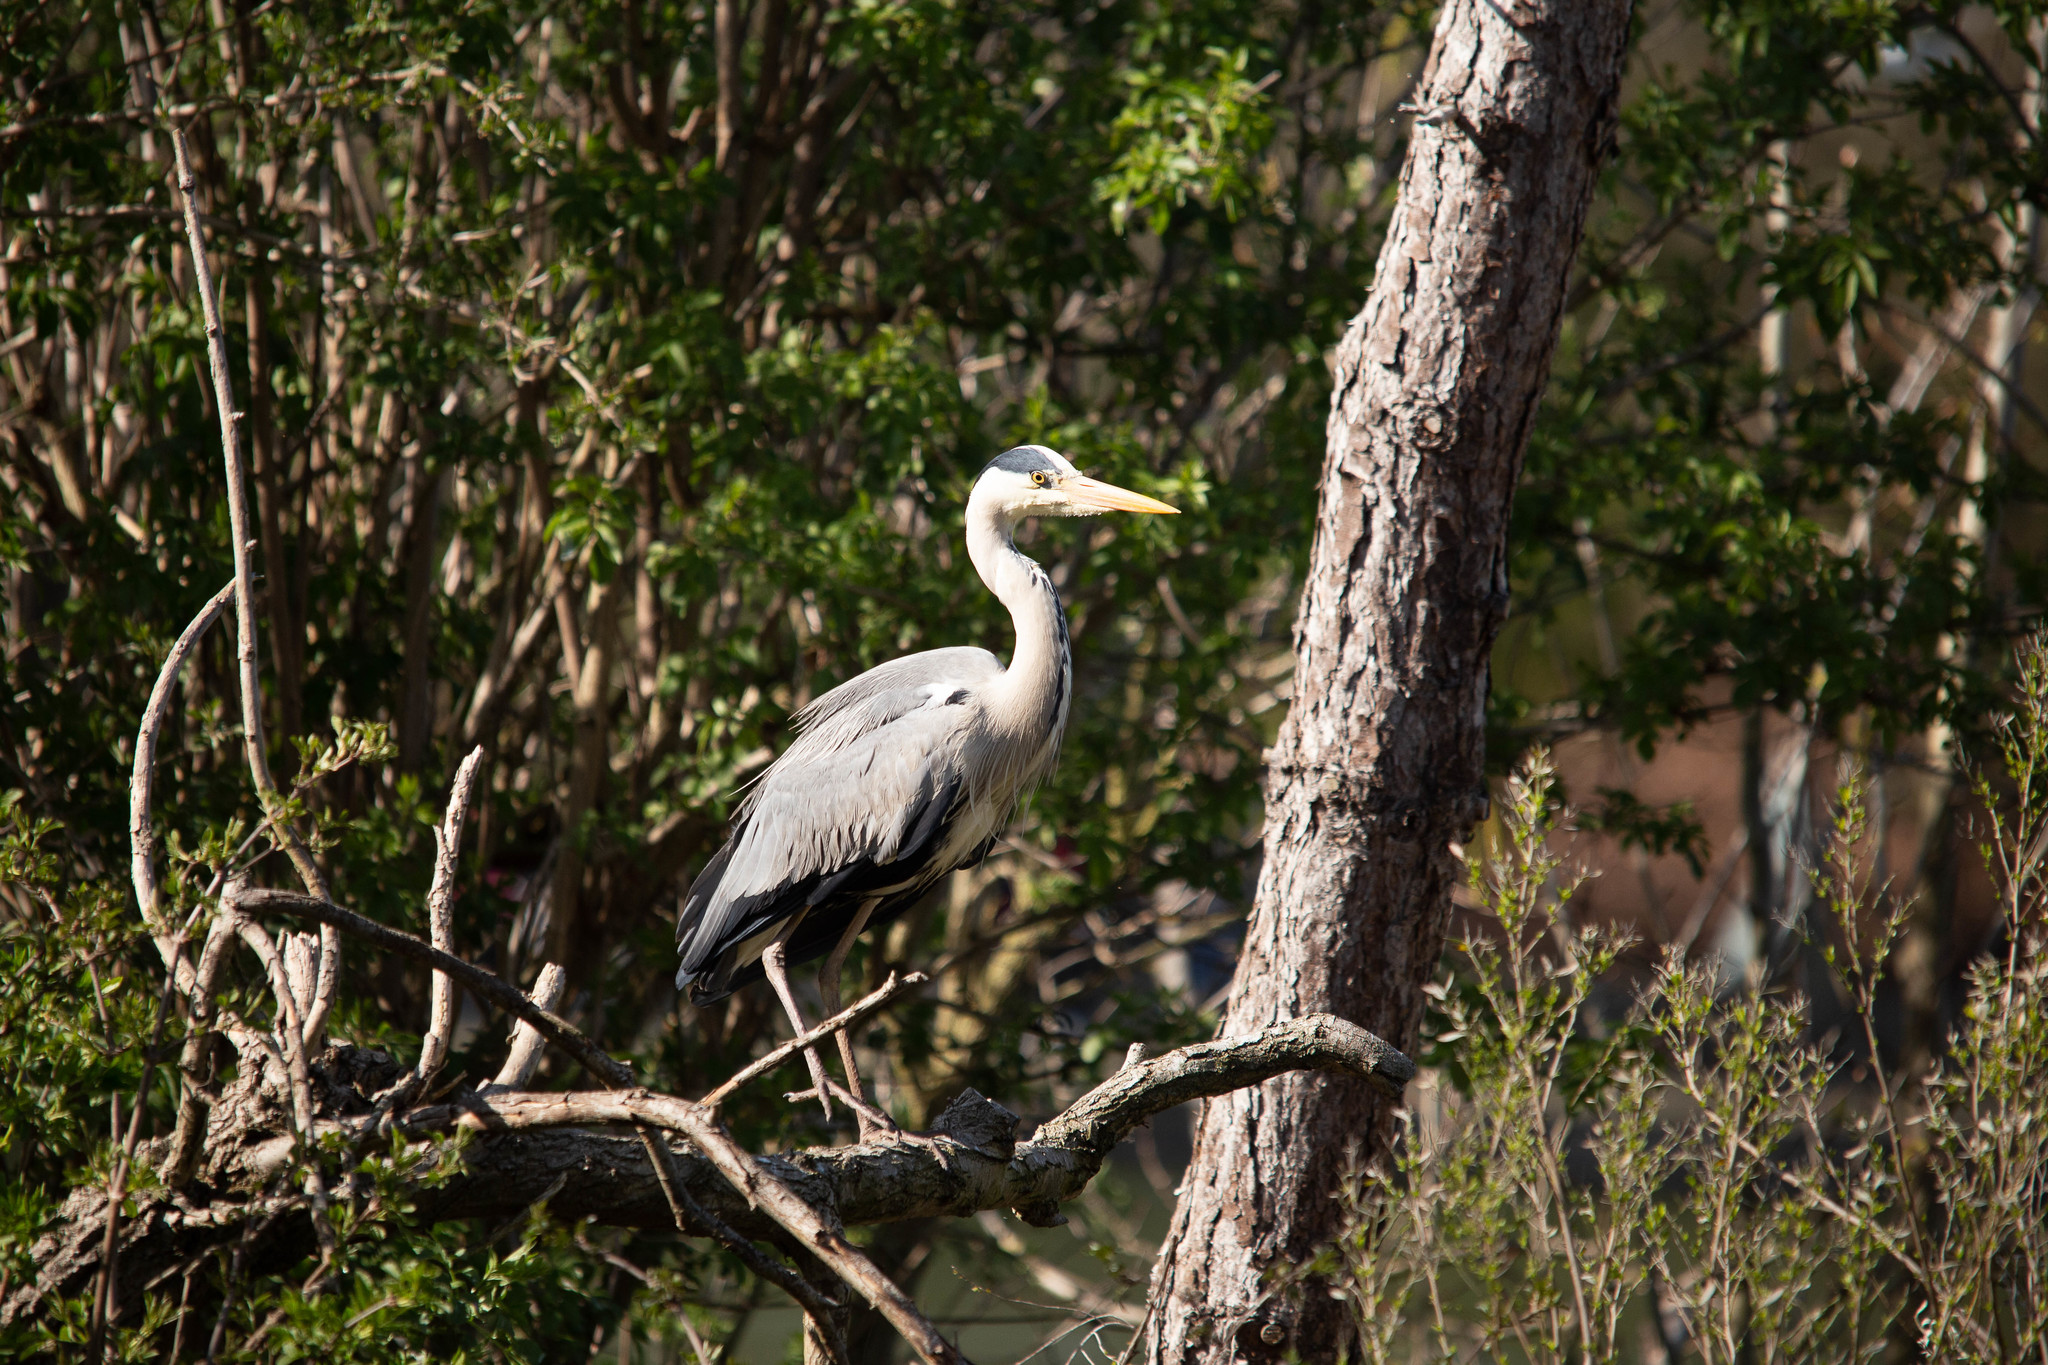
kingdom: Animalia
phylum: Chordata
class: Aves
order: Pelecaniformes
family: Ardeidae
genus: Ardea
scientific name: Ardea cinerea
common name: Grey heron
